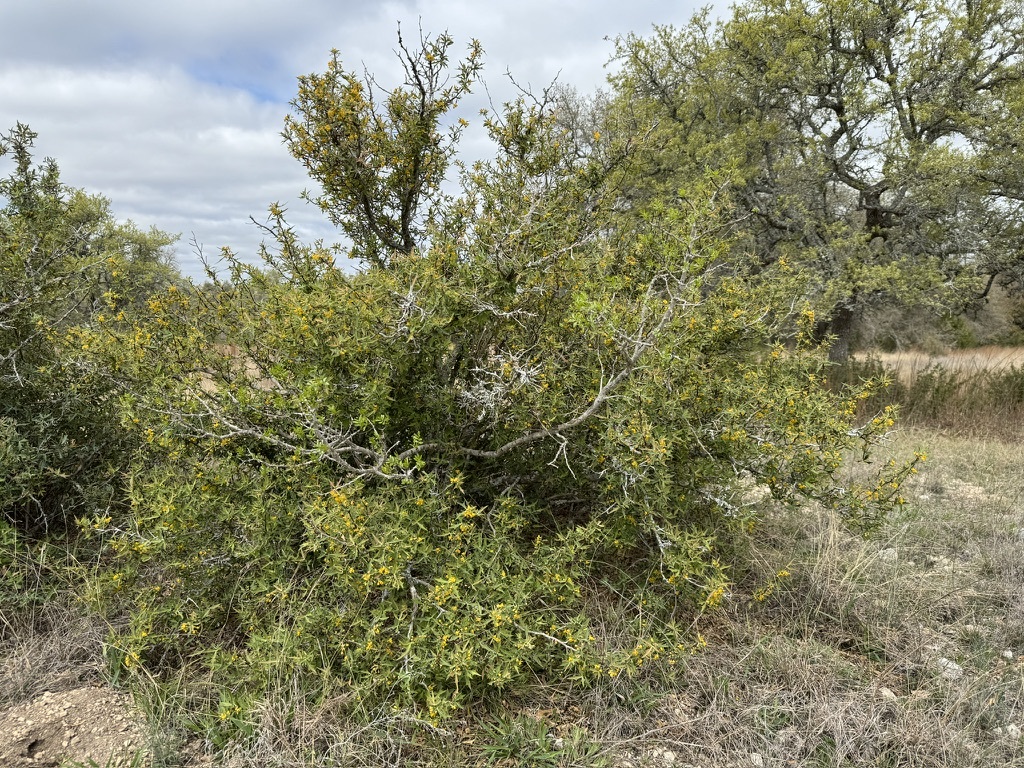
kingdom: Plantae
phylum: Tracheophyta
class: Magnoliopsida
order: Ranunculales
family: Berberidaceae
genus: Alloberberis
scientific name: Alloberberis trifoliolata
